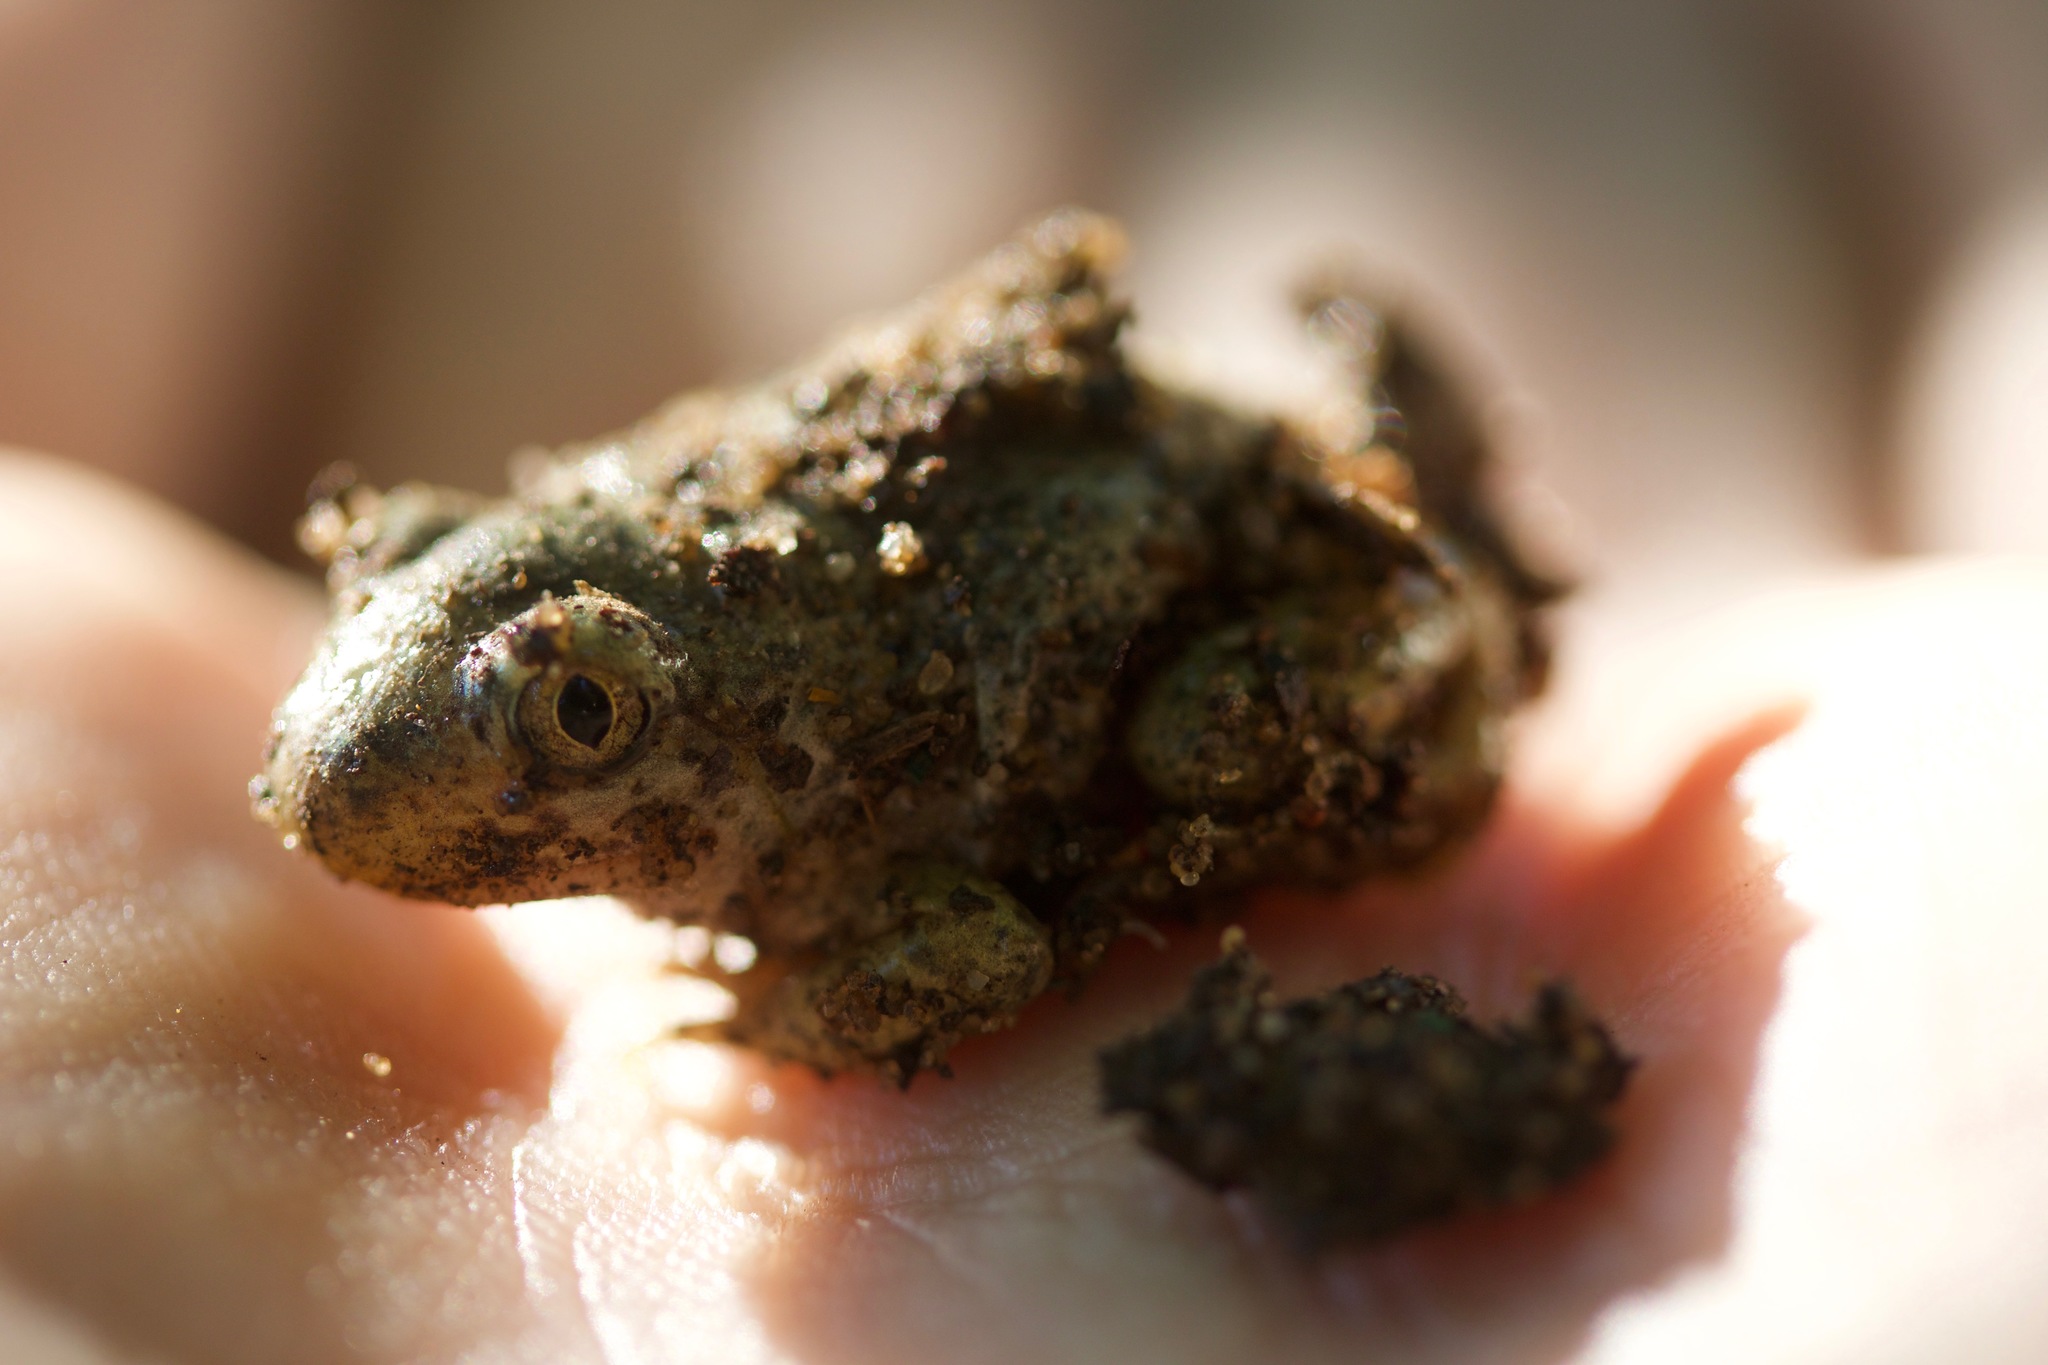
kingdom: Animalia
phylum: Chordata
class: Amphibia
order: Anura
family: Pelobatidae
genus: Pelobates
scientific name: Pelobates fuscus
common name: Common eurasian spadefoot toad
